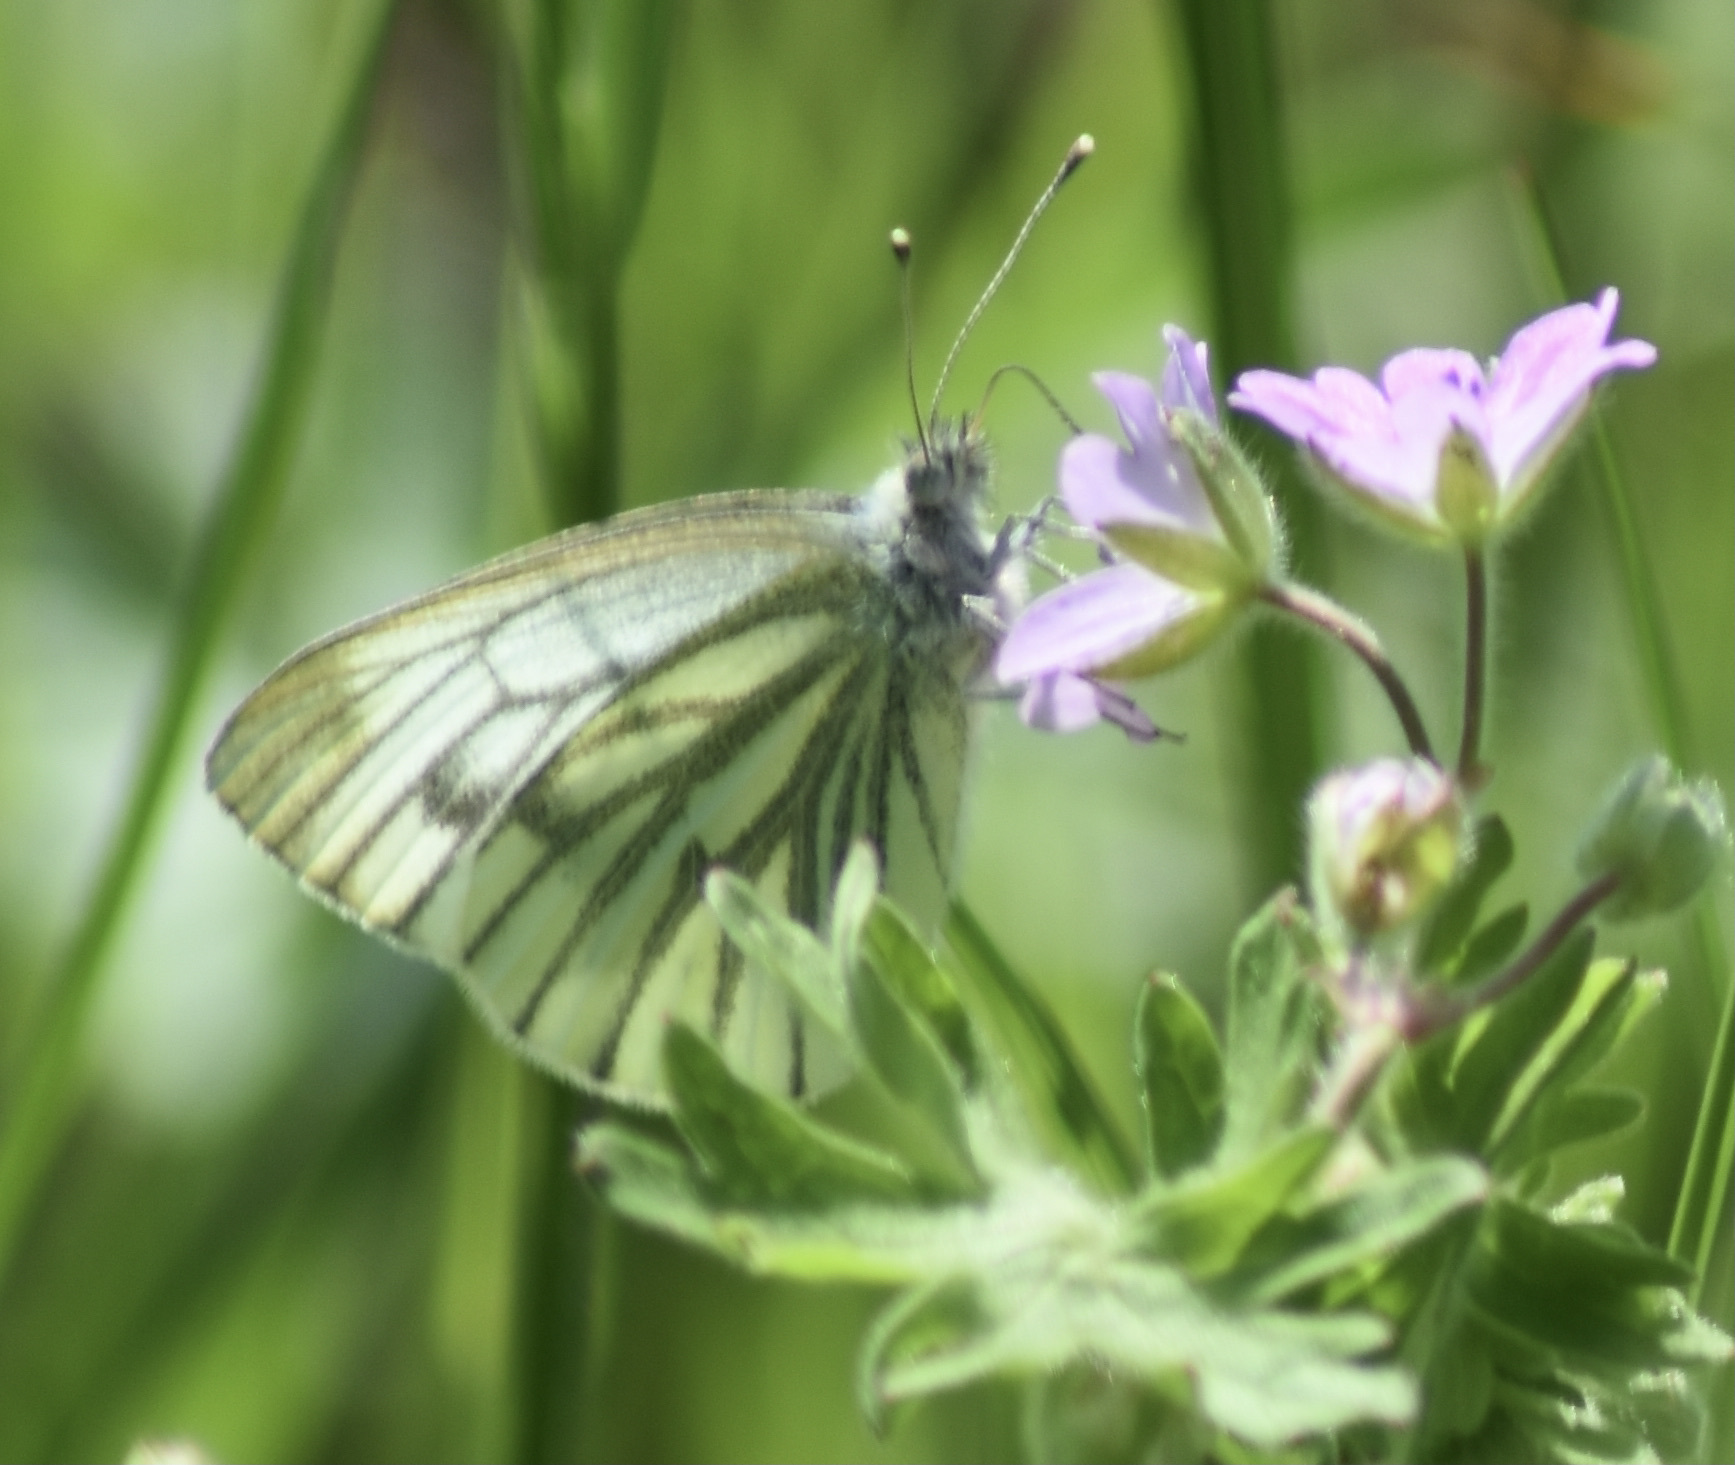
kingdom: Animalia
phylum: Arthropoda
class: Insecta
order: Lepidoptera
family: Pieridae
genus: Pieris
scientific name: Pieris napi
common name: Green-veined white
